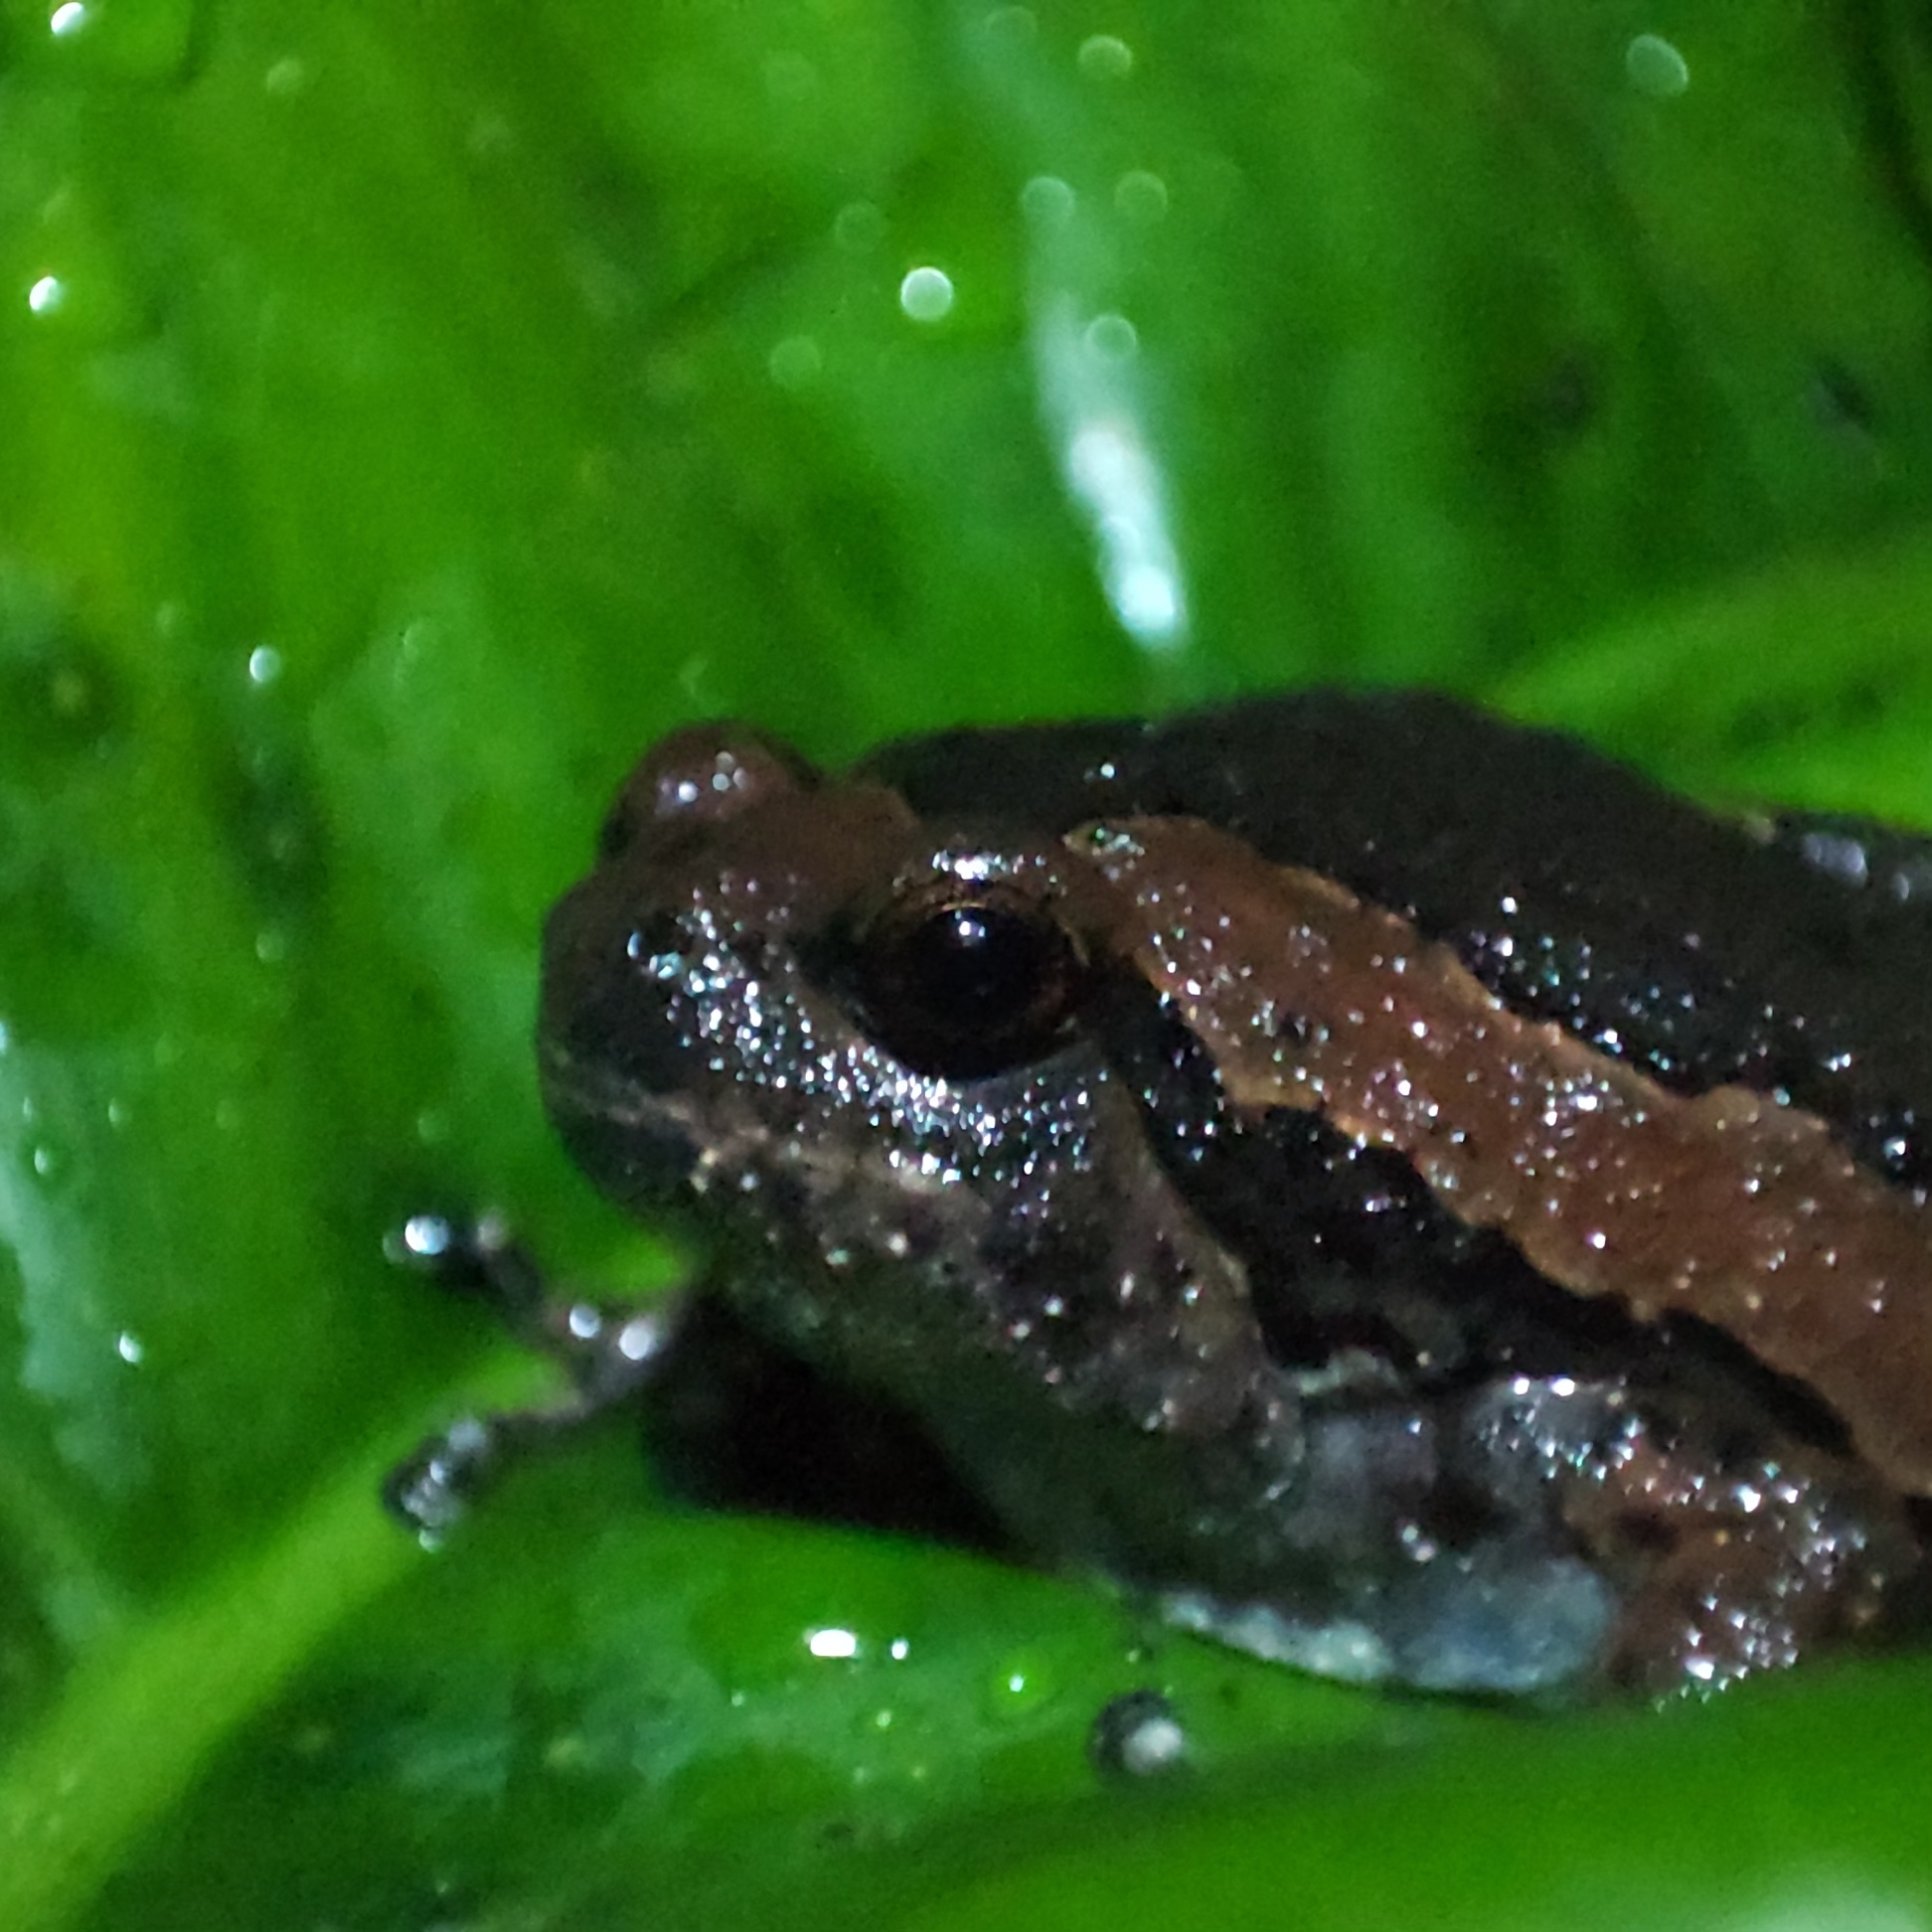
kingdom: Animalia
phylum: Chordata
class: Amphibia
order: Anura
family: Microhylidae
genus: Kaloula
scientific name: Kaloula pulchra
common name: Common,banded bullfrog
